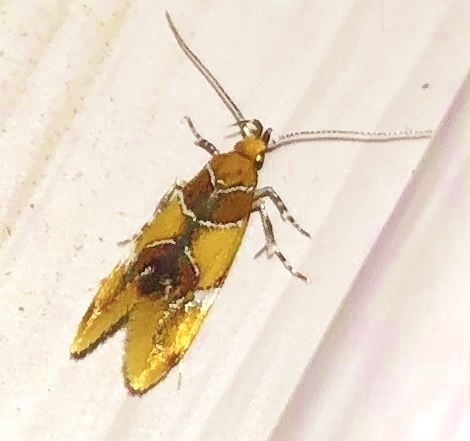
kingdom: Animalia
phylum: Arthropoda
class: Insecta
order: Lepidoptera
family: Oecophoridae
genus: Callima
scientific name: Callima argenticinctella
